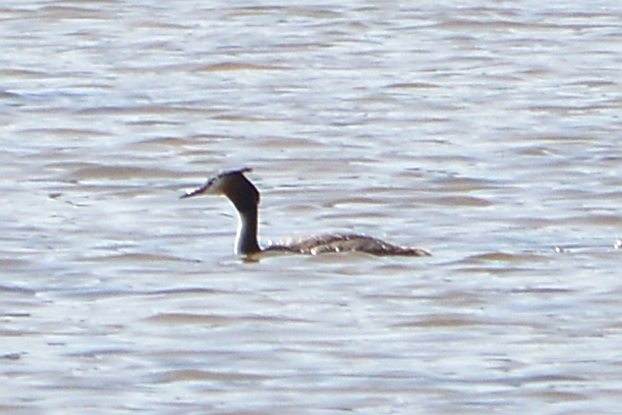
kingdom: Animalia
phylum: Chordata
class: Aves
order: Podicipediformes
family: Podicipedidae
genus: Podiceps
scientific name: Podiceps cristatus
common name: Great crested grebe
